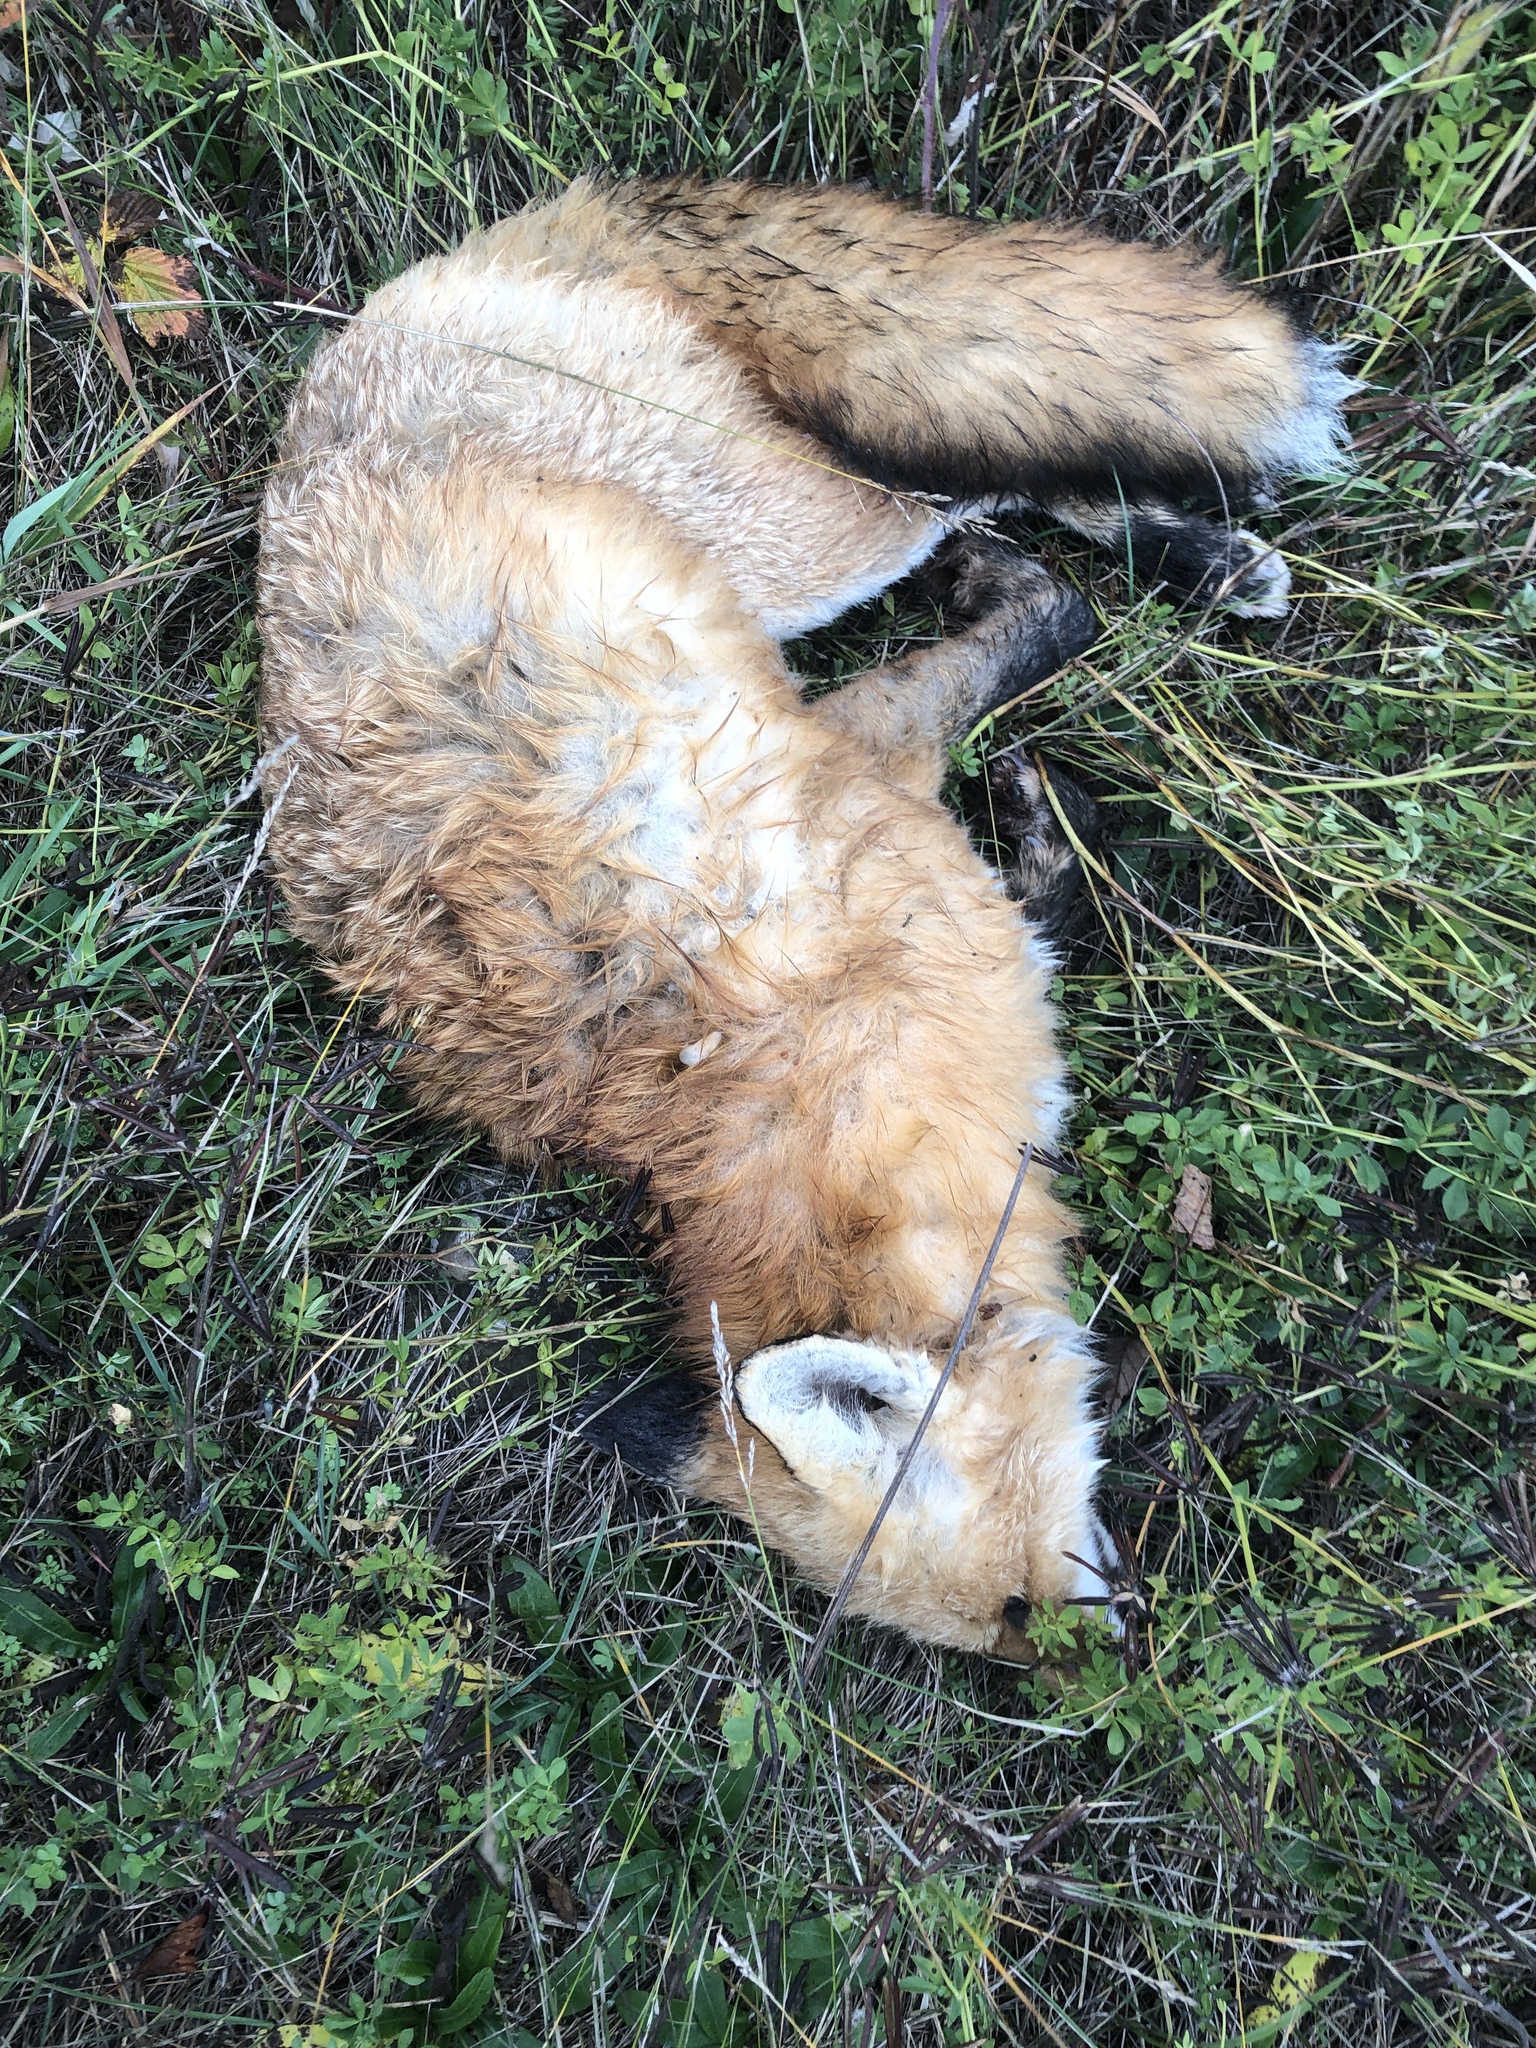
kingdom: Animalia
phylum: Chordata
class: Mammalia
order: Carnivora
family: Canidae
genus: Vulpes
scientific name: Vulpes vulpes
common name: Red fox
